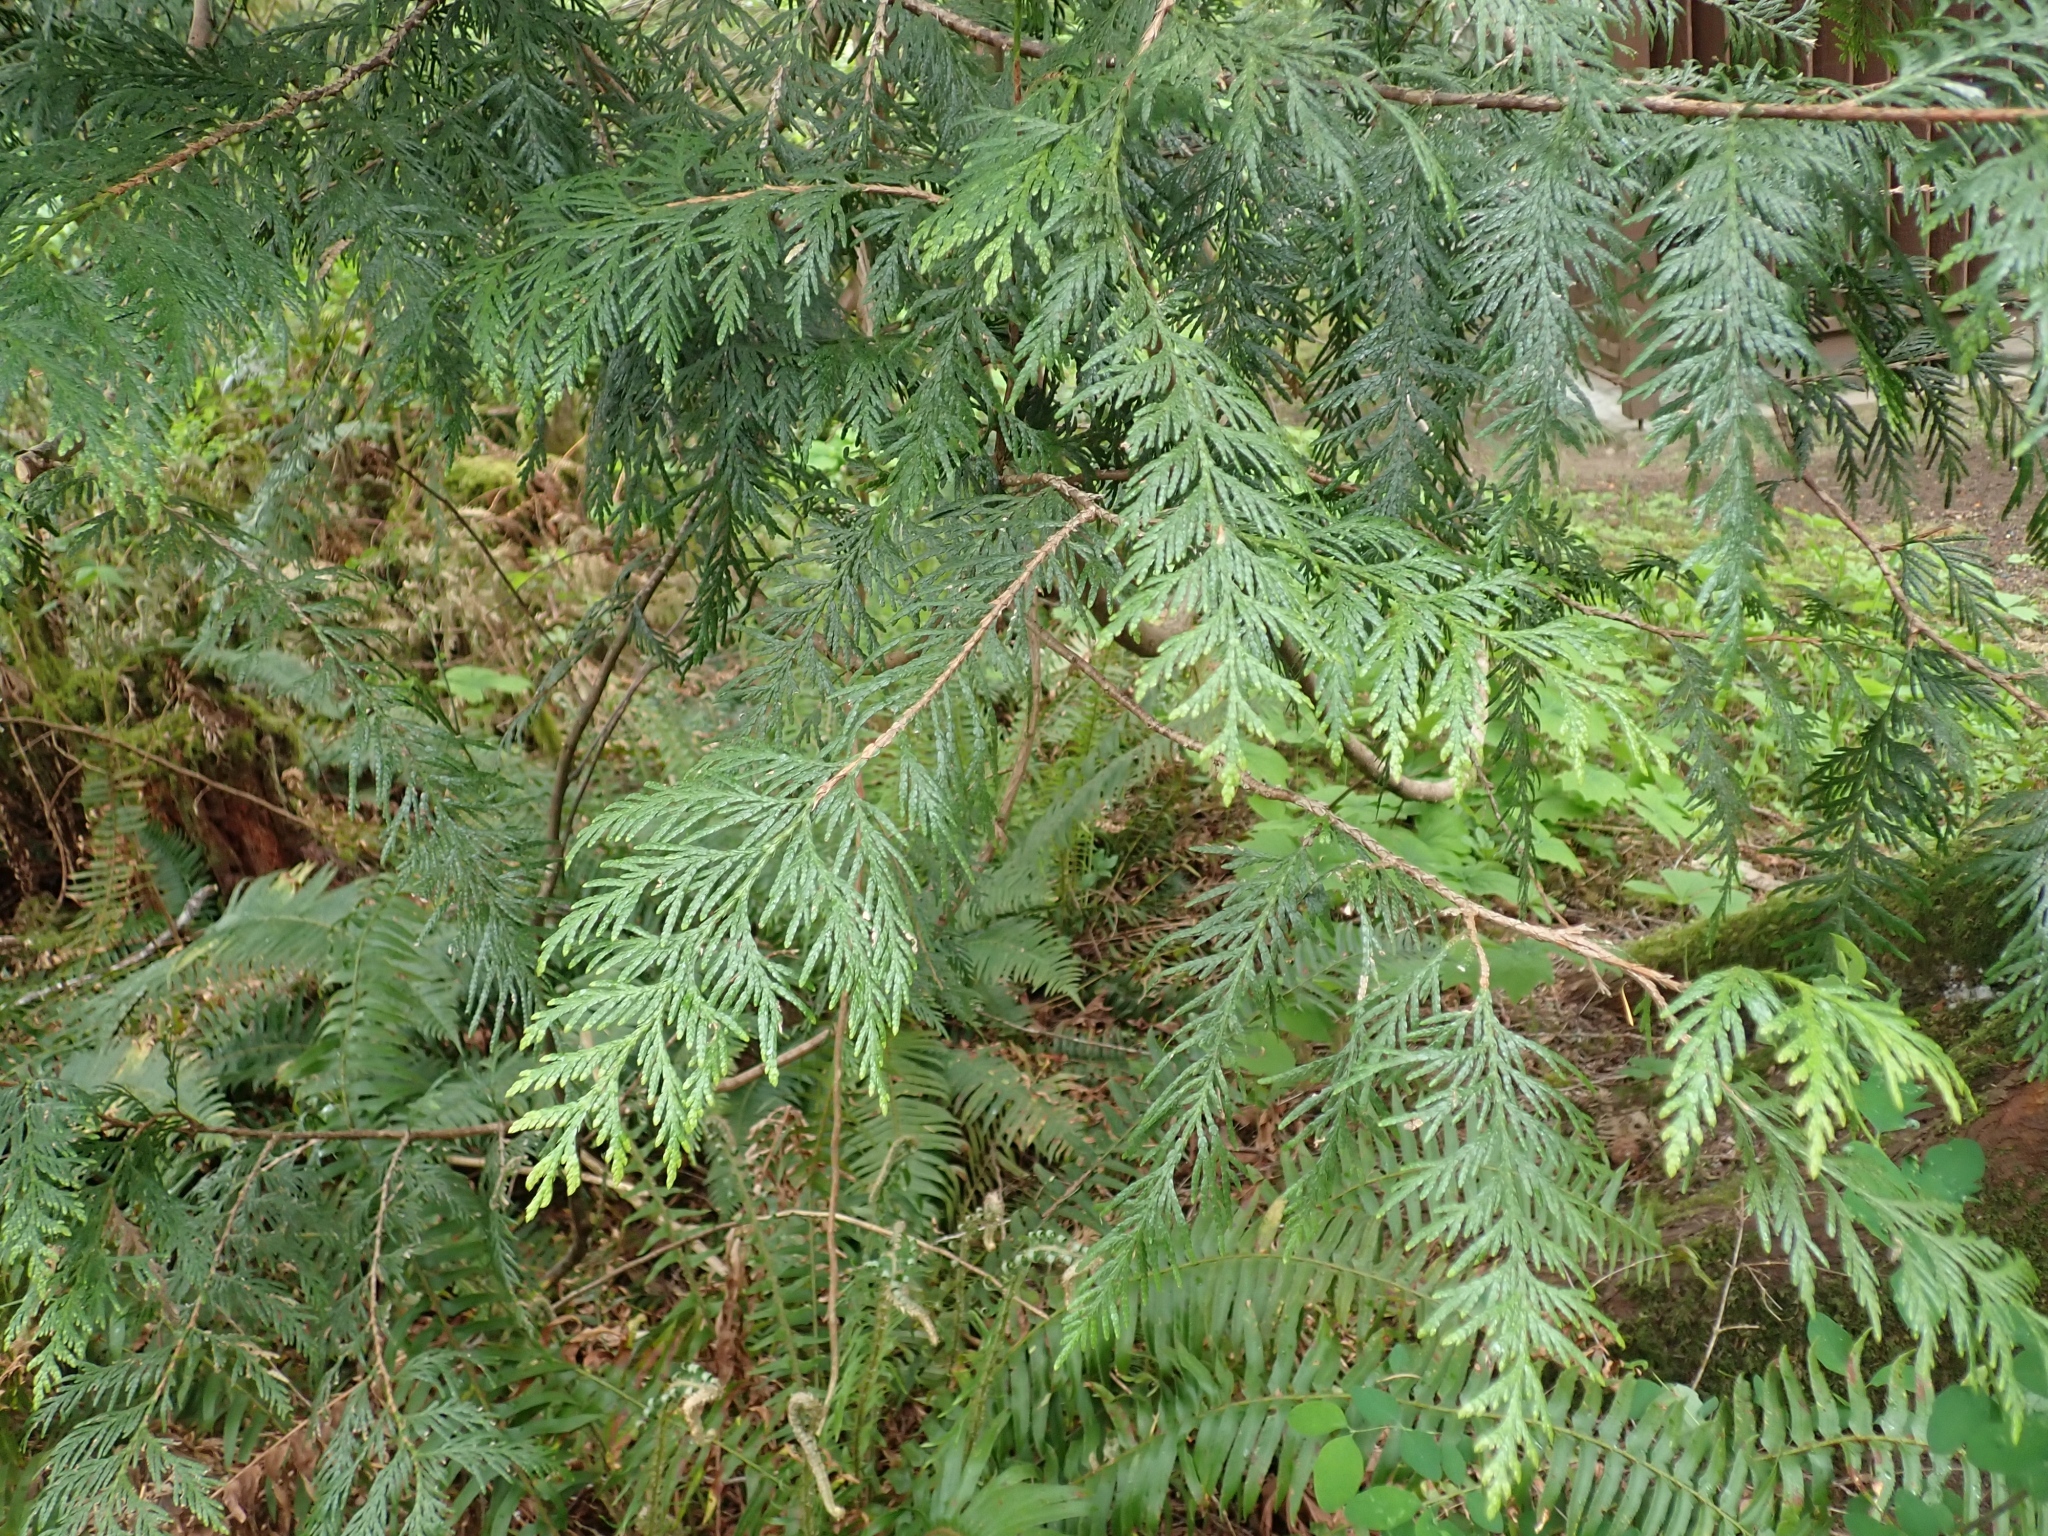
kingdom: Plantae
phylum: Tracheophyta
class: Pinopsida
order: Pinales
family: Cupressaceae
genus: Thuja
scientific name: Thuja plicata
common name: Western red-cedar
